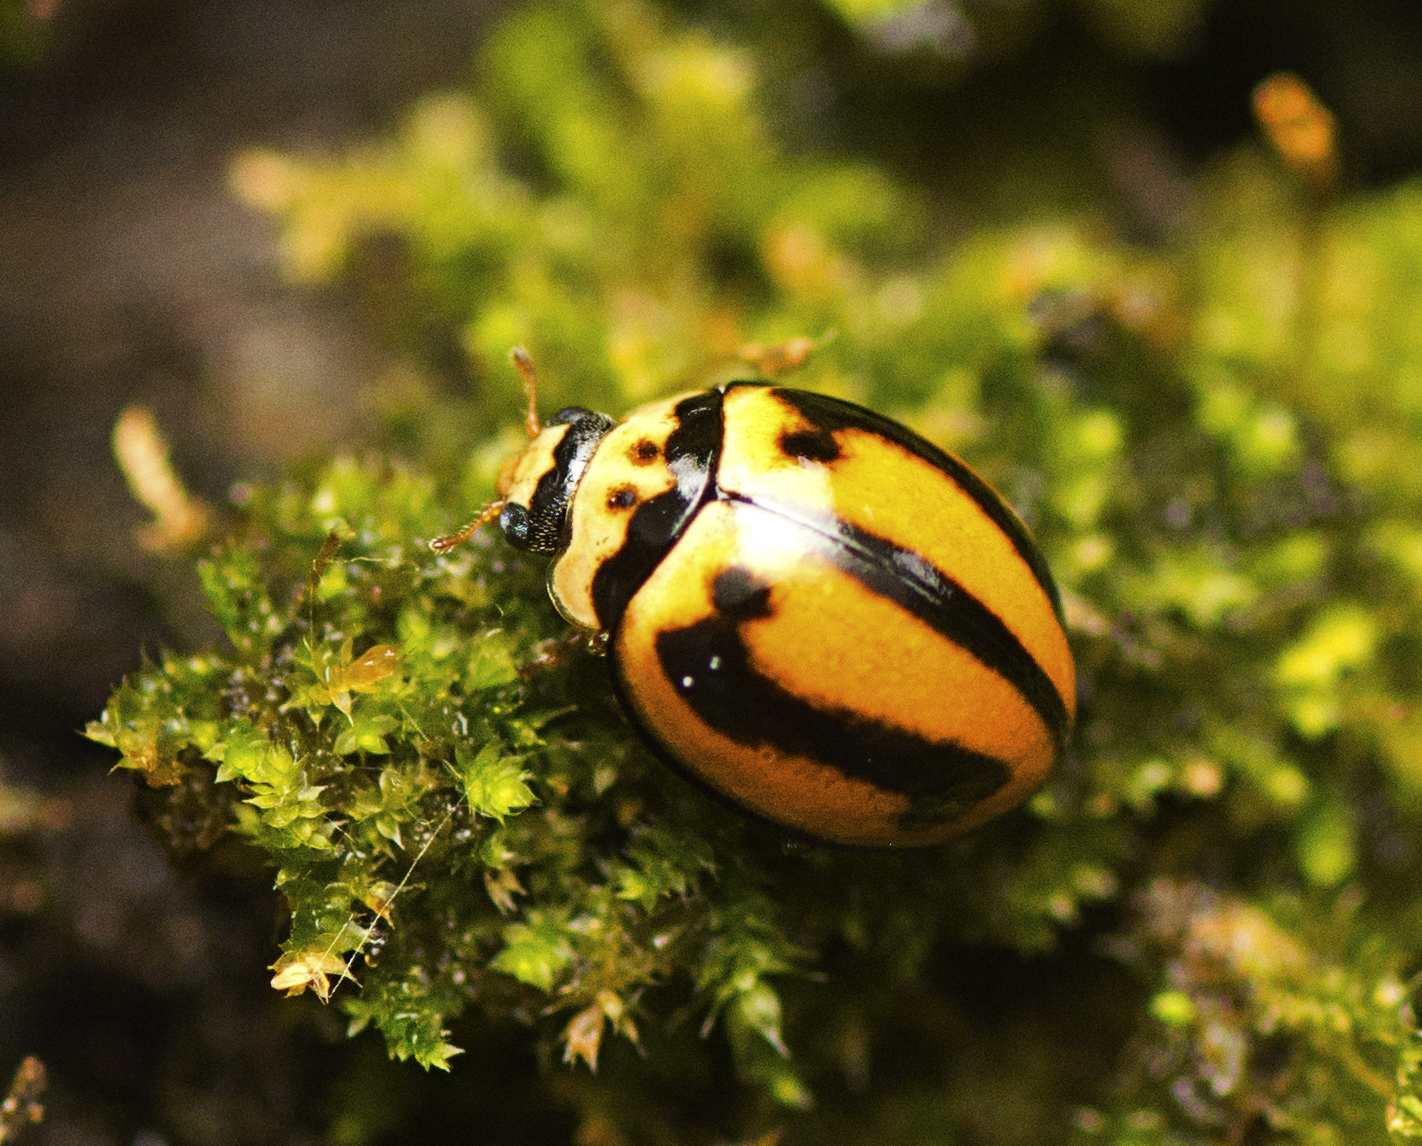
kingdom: Animalia
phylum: Arthropoda
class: Insecta
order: Coleoptera
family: Coccinellidae
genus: Micraspis
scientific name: Micraspis frenata
